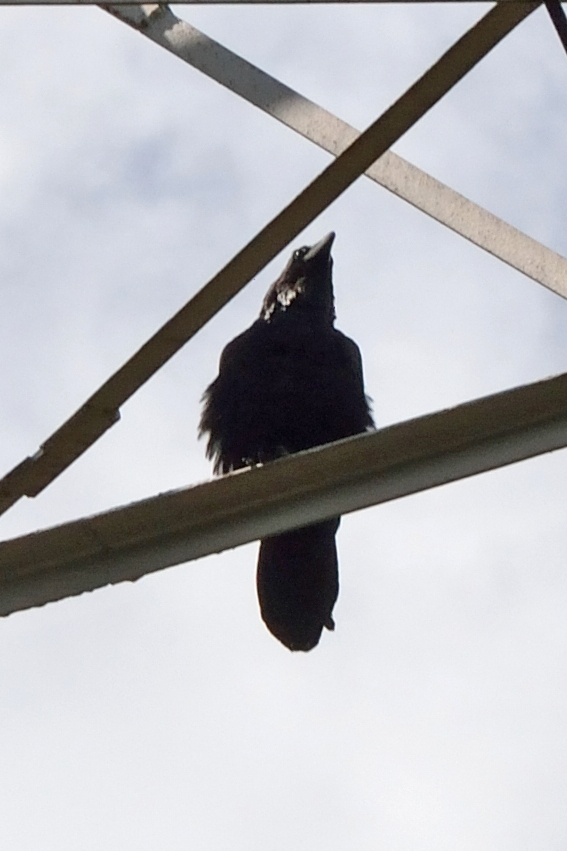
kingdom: Animalia
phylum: Chordata
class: Aves
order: Passeriformes
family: Corvidae
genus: Corvus
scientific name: Corvus corax
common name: Common raven
